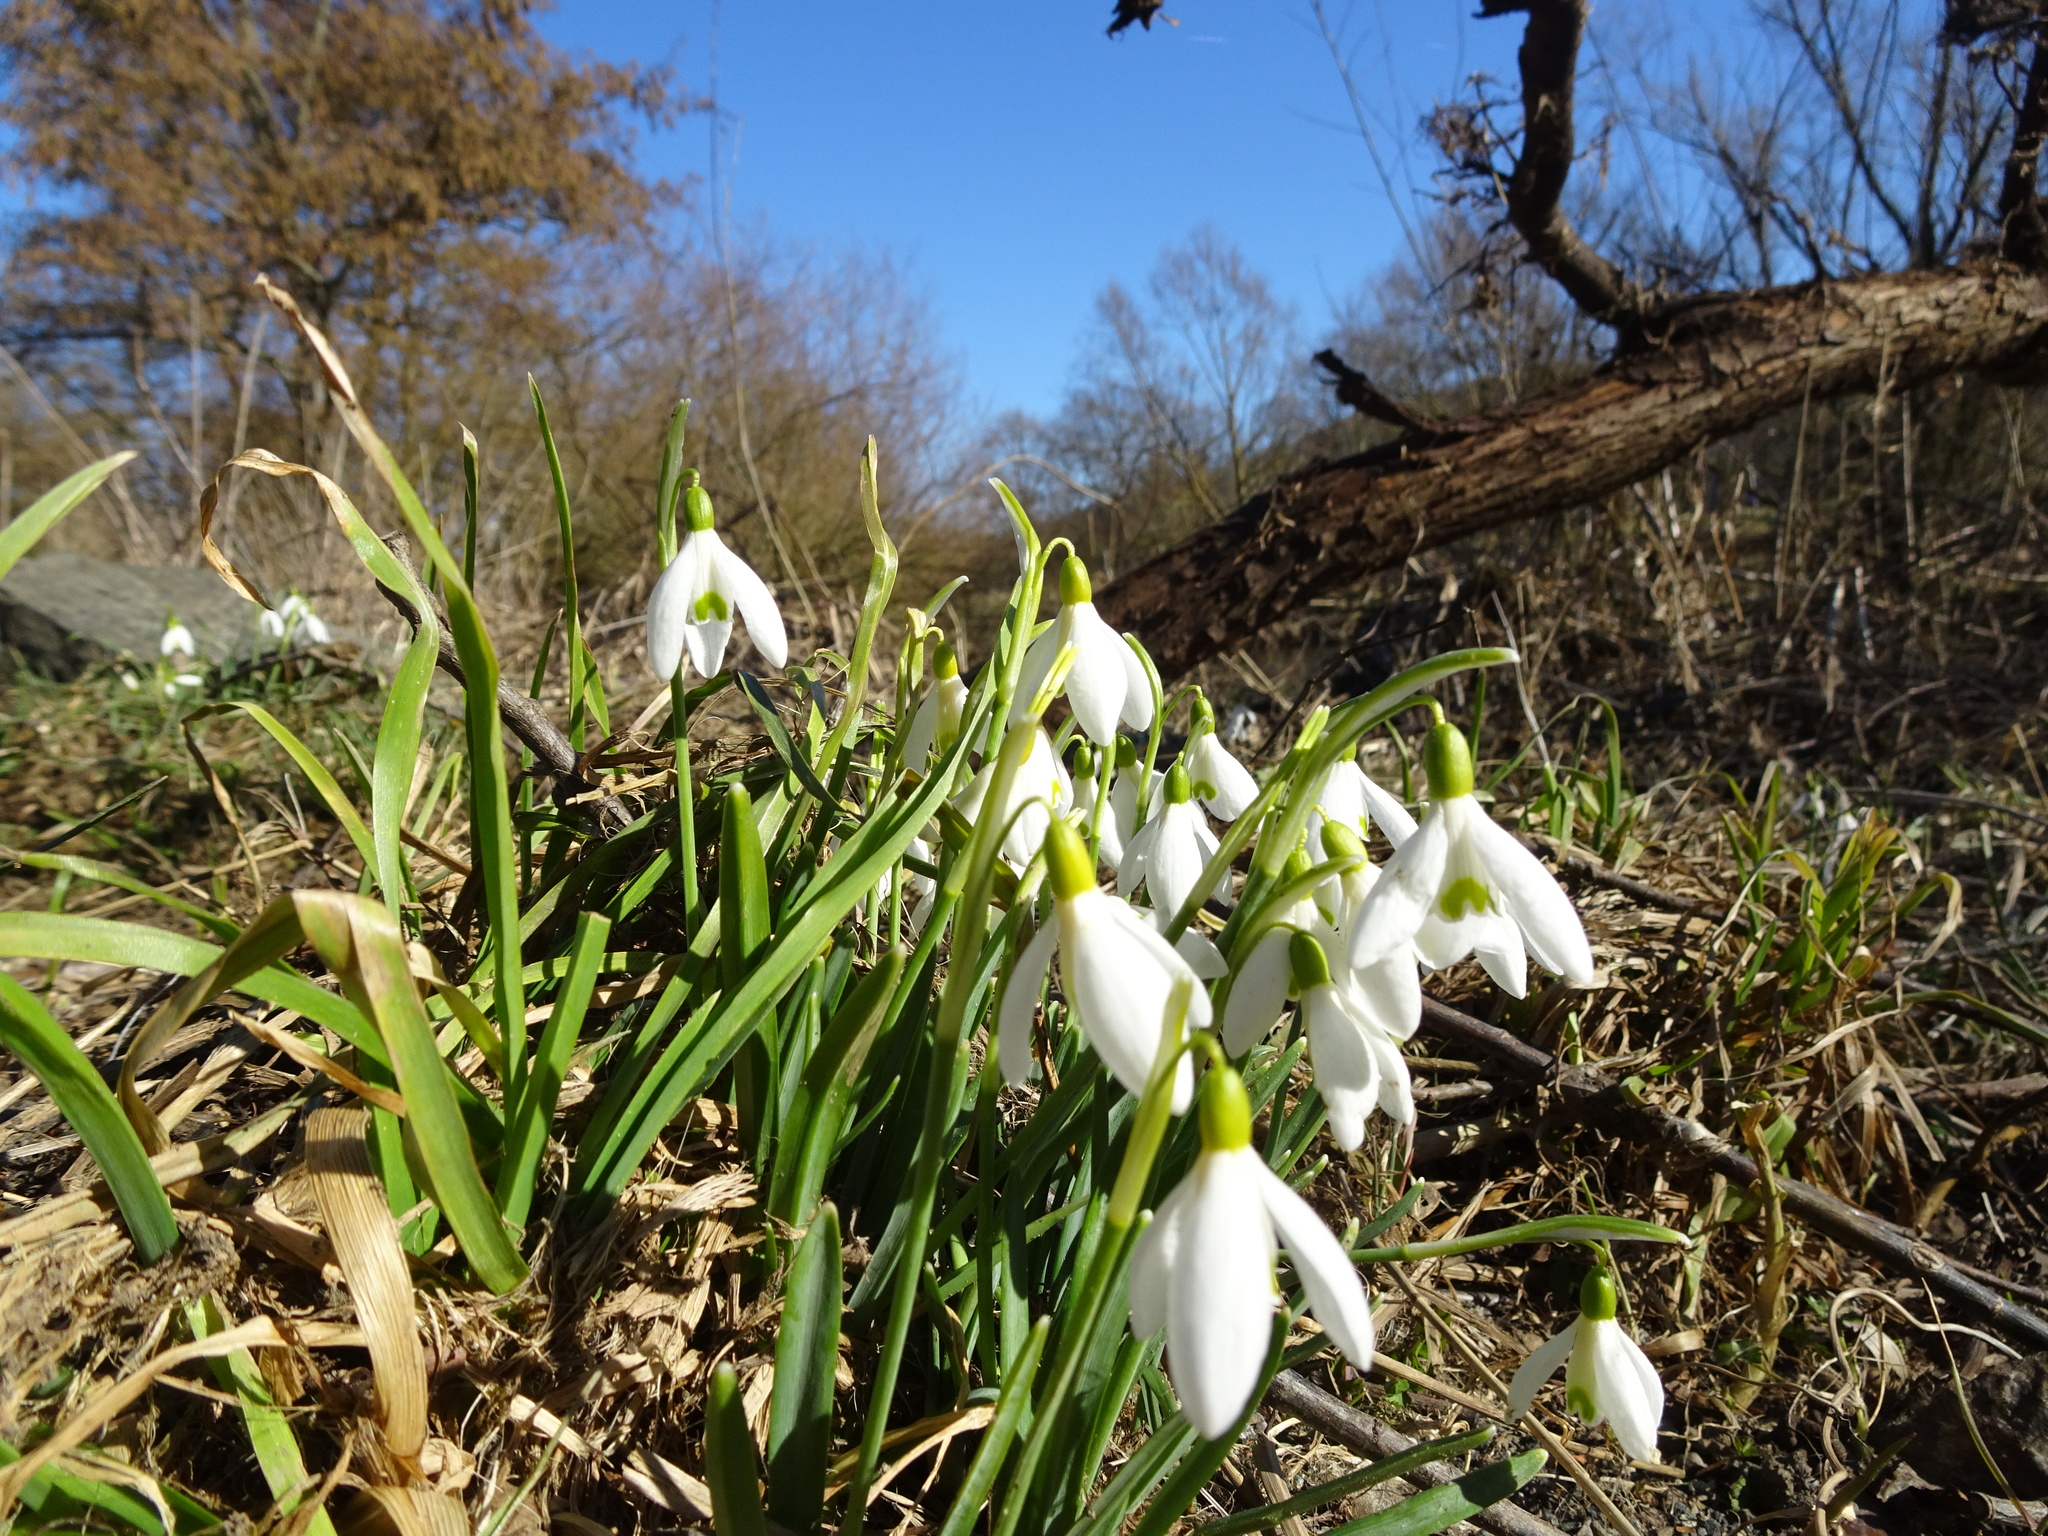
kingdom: Plantae
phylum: Tracheophyta
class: Liliopsida
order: Asparagales
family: Amaryllidaceae
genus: Galanthus
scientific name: Galanthus nivalis
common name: Snowdrop
